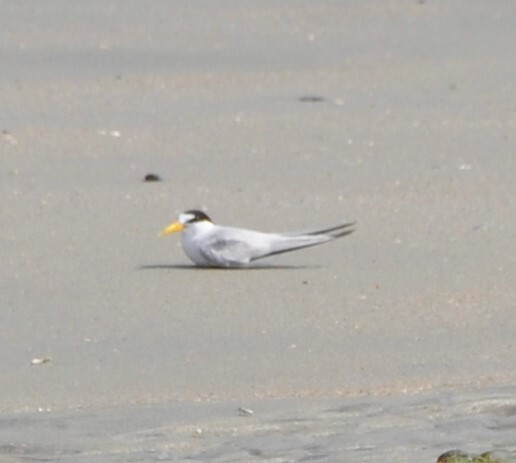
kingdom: Animalia
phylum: Chordata
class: Aves
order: Charadriiformes
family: Laridae
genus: Sternula
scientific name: Sternula antillarum
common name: Least tern
